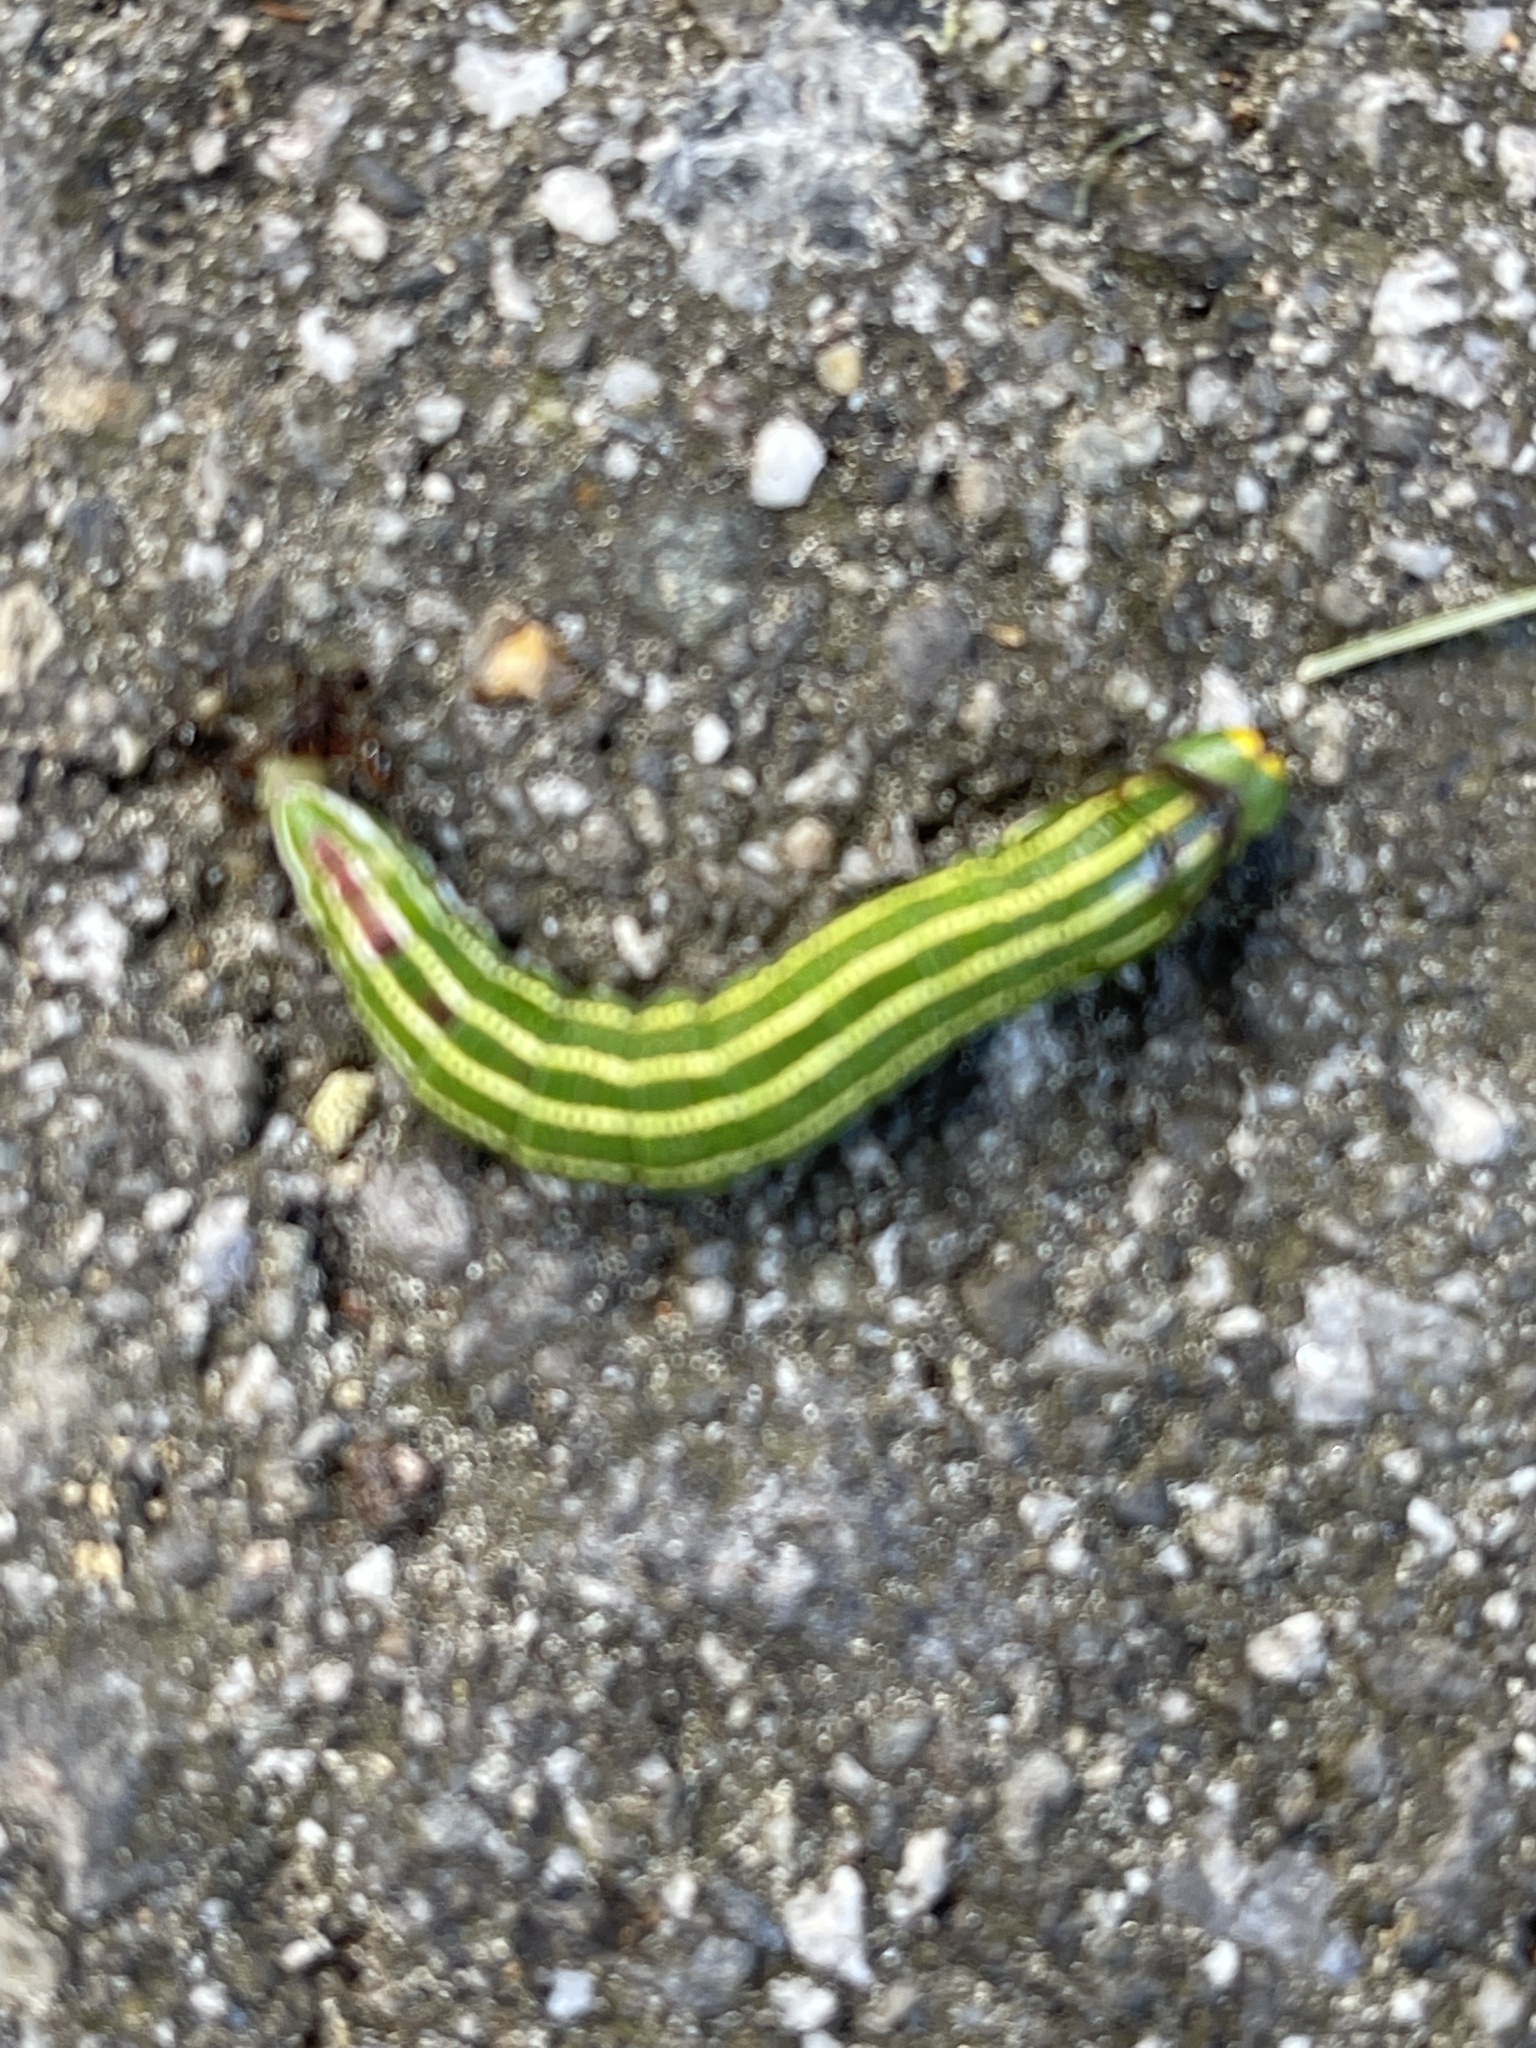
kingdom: Animalia
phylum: Arthropoda
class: Insecta
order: Lepidoptera
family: Sphingidae
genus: Lapara
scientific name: Lapara bombycoides
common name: Northern pine sphinx
